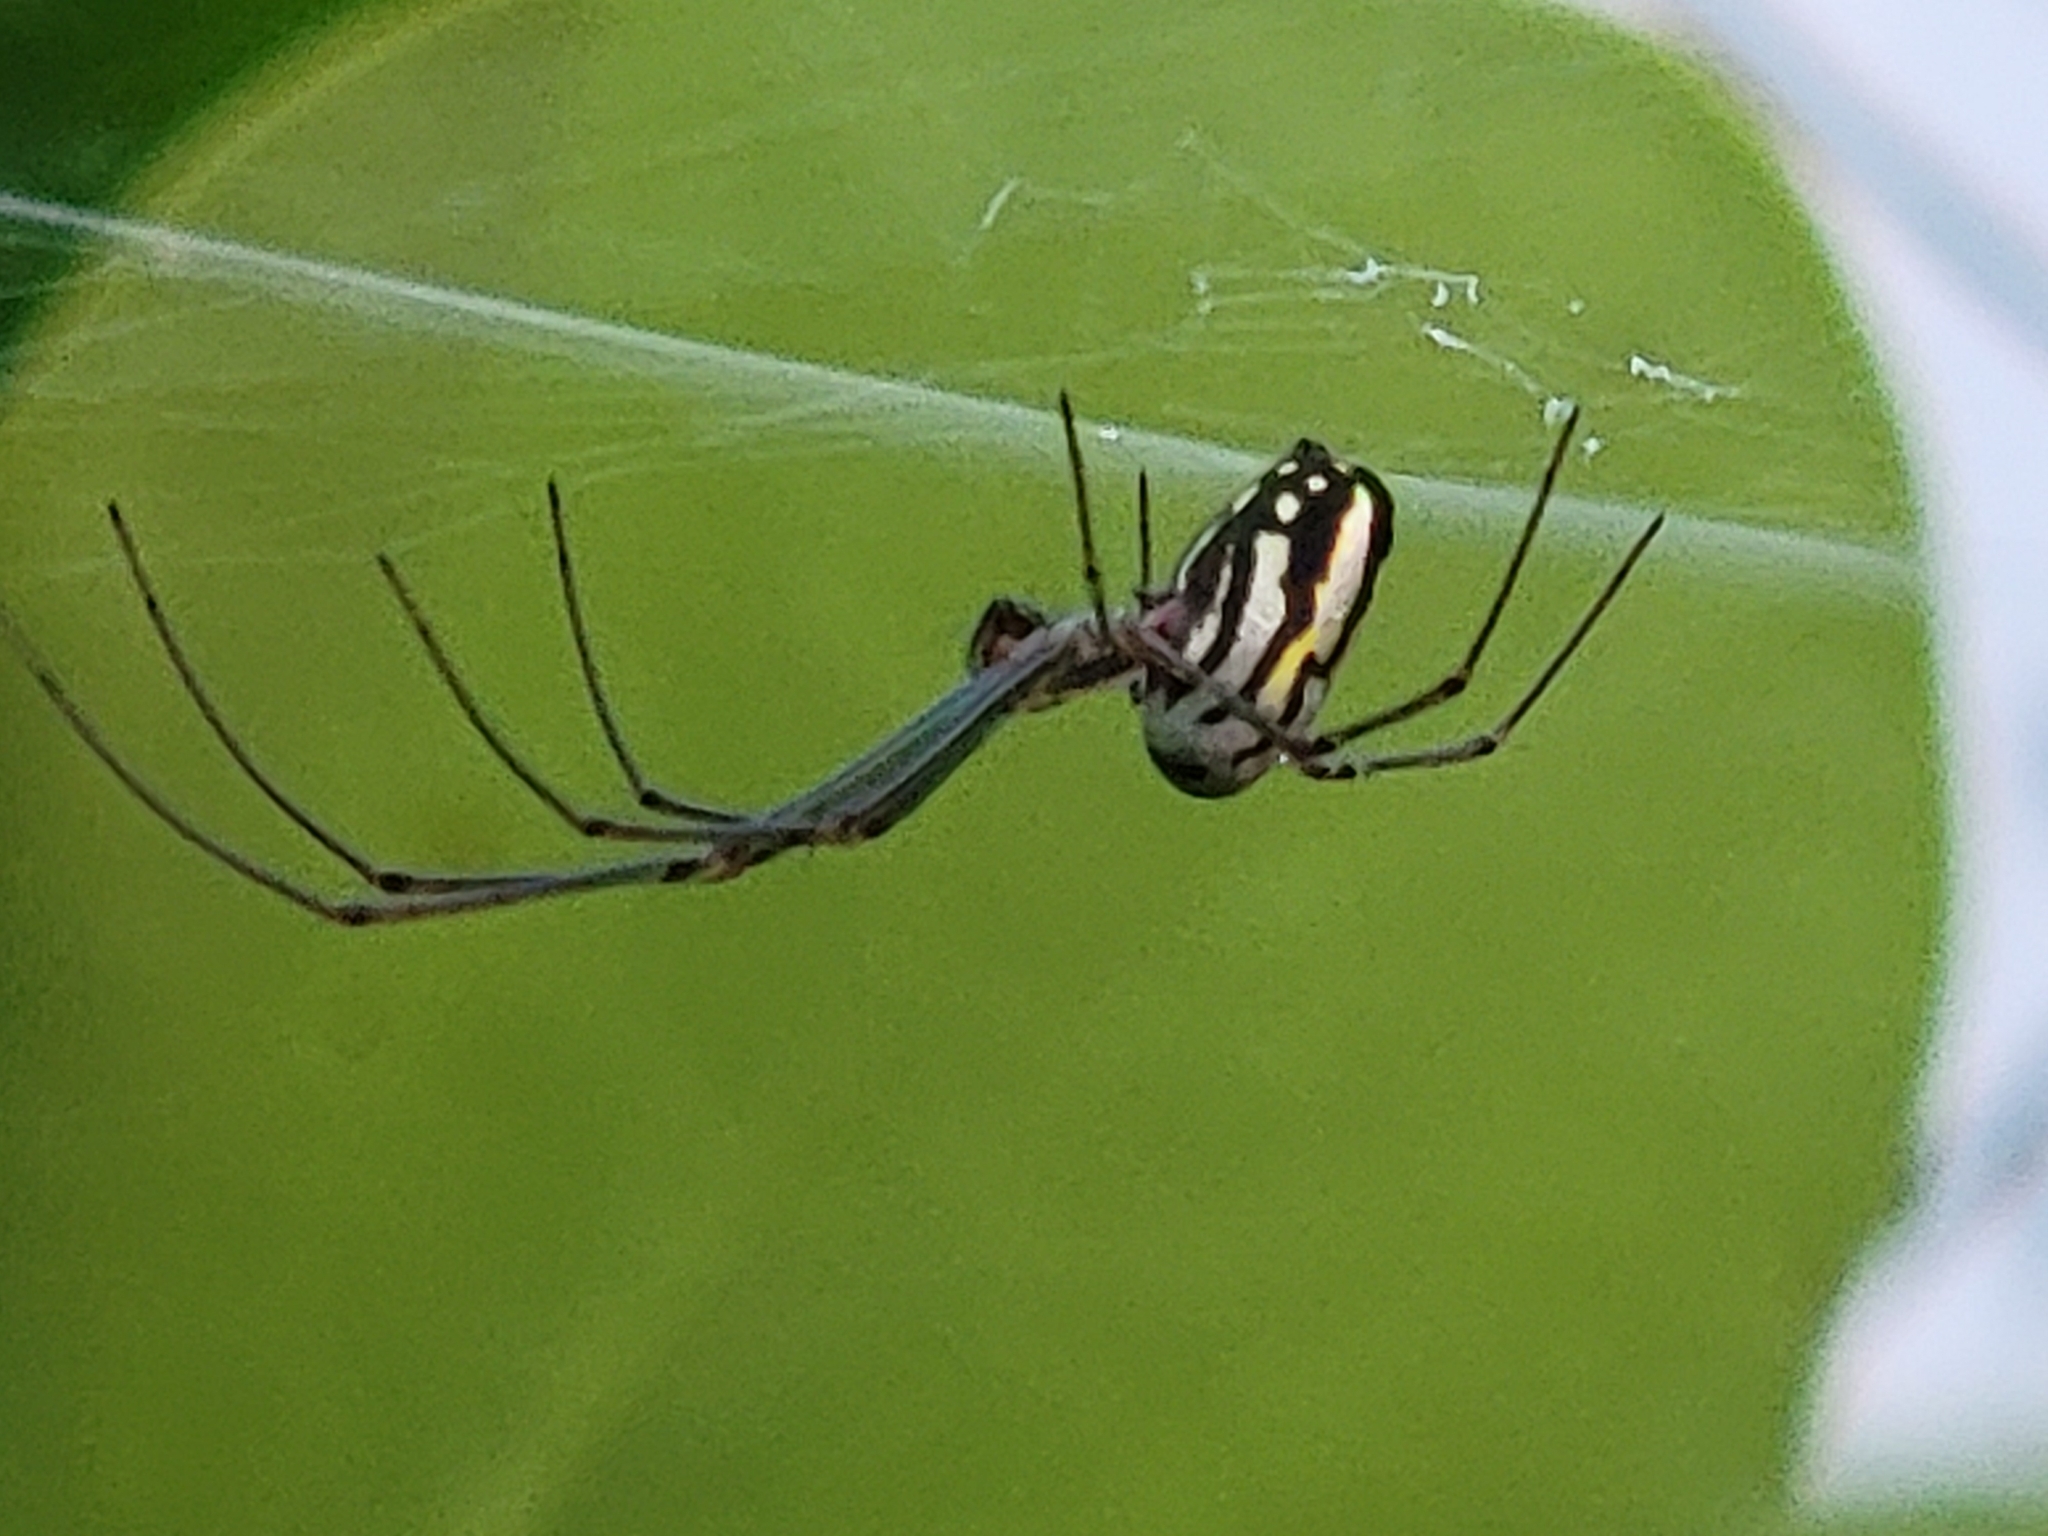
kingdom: Animalia
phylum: Arthropoda
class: Arachnida
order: Araneae
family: Tetragnathidae
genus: Leucauge
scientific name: Leucauge argyra
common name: Longjawed orb weavers
